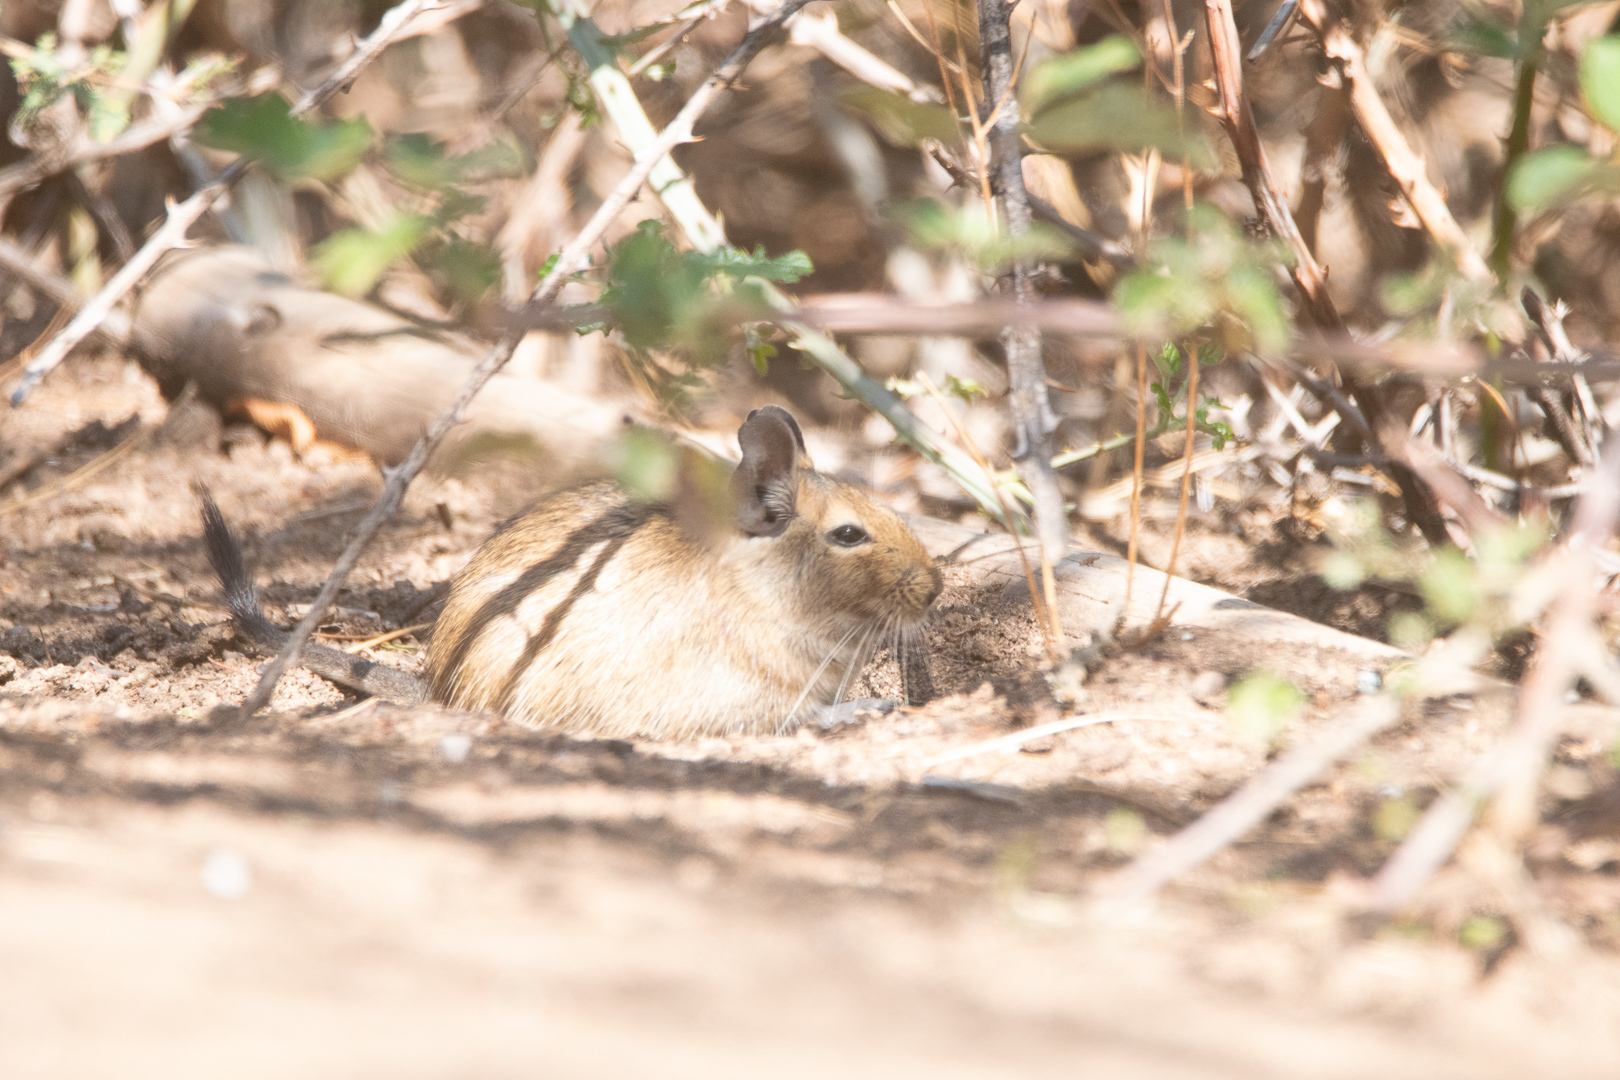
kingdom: Animalia
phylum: Chordata
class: Mammalia
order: Rodentia
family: Octodontidae
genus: Octodon
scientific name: Octodon degus
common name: Degu
